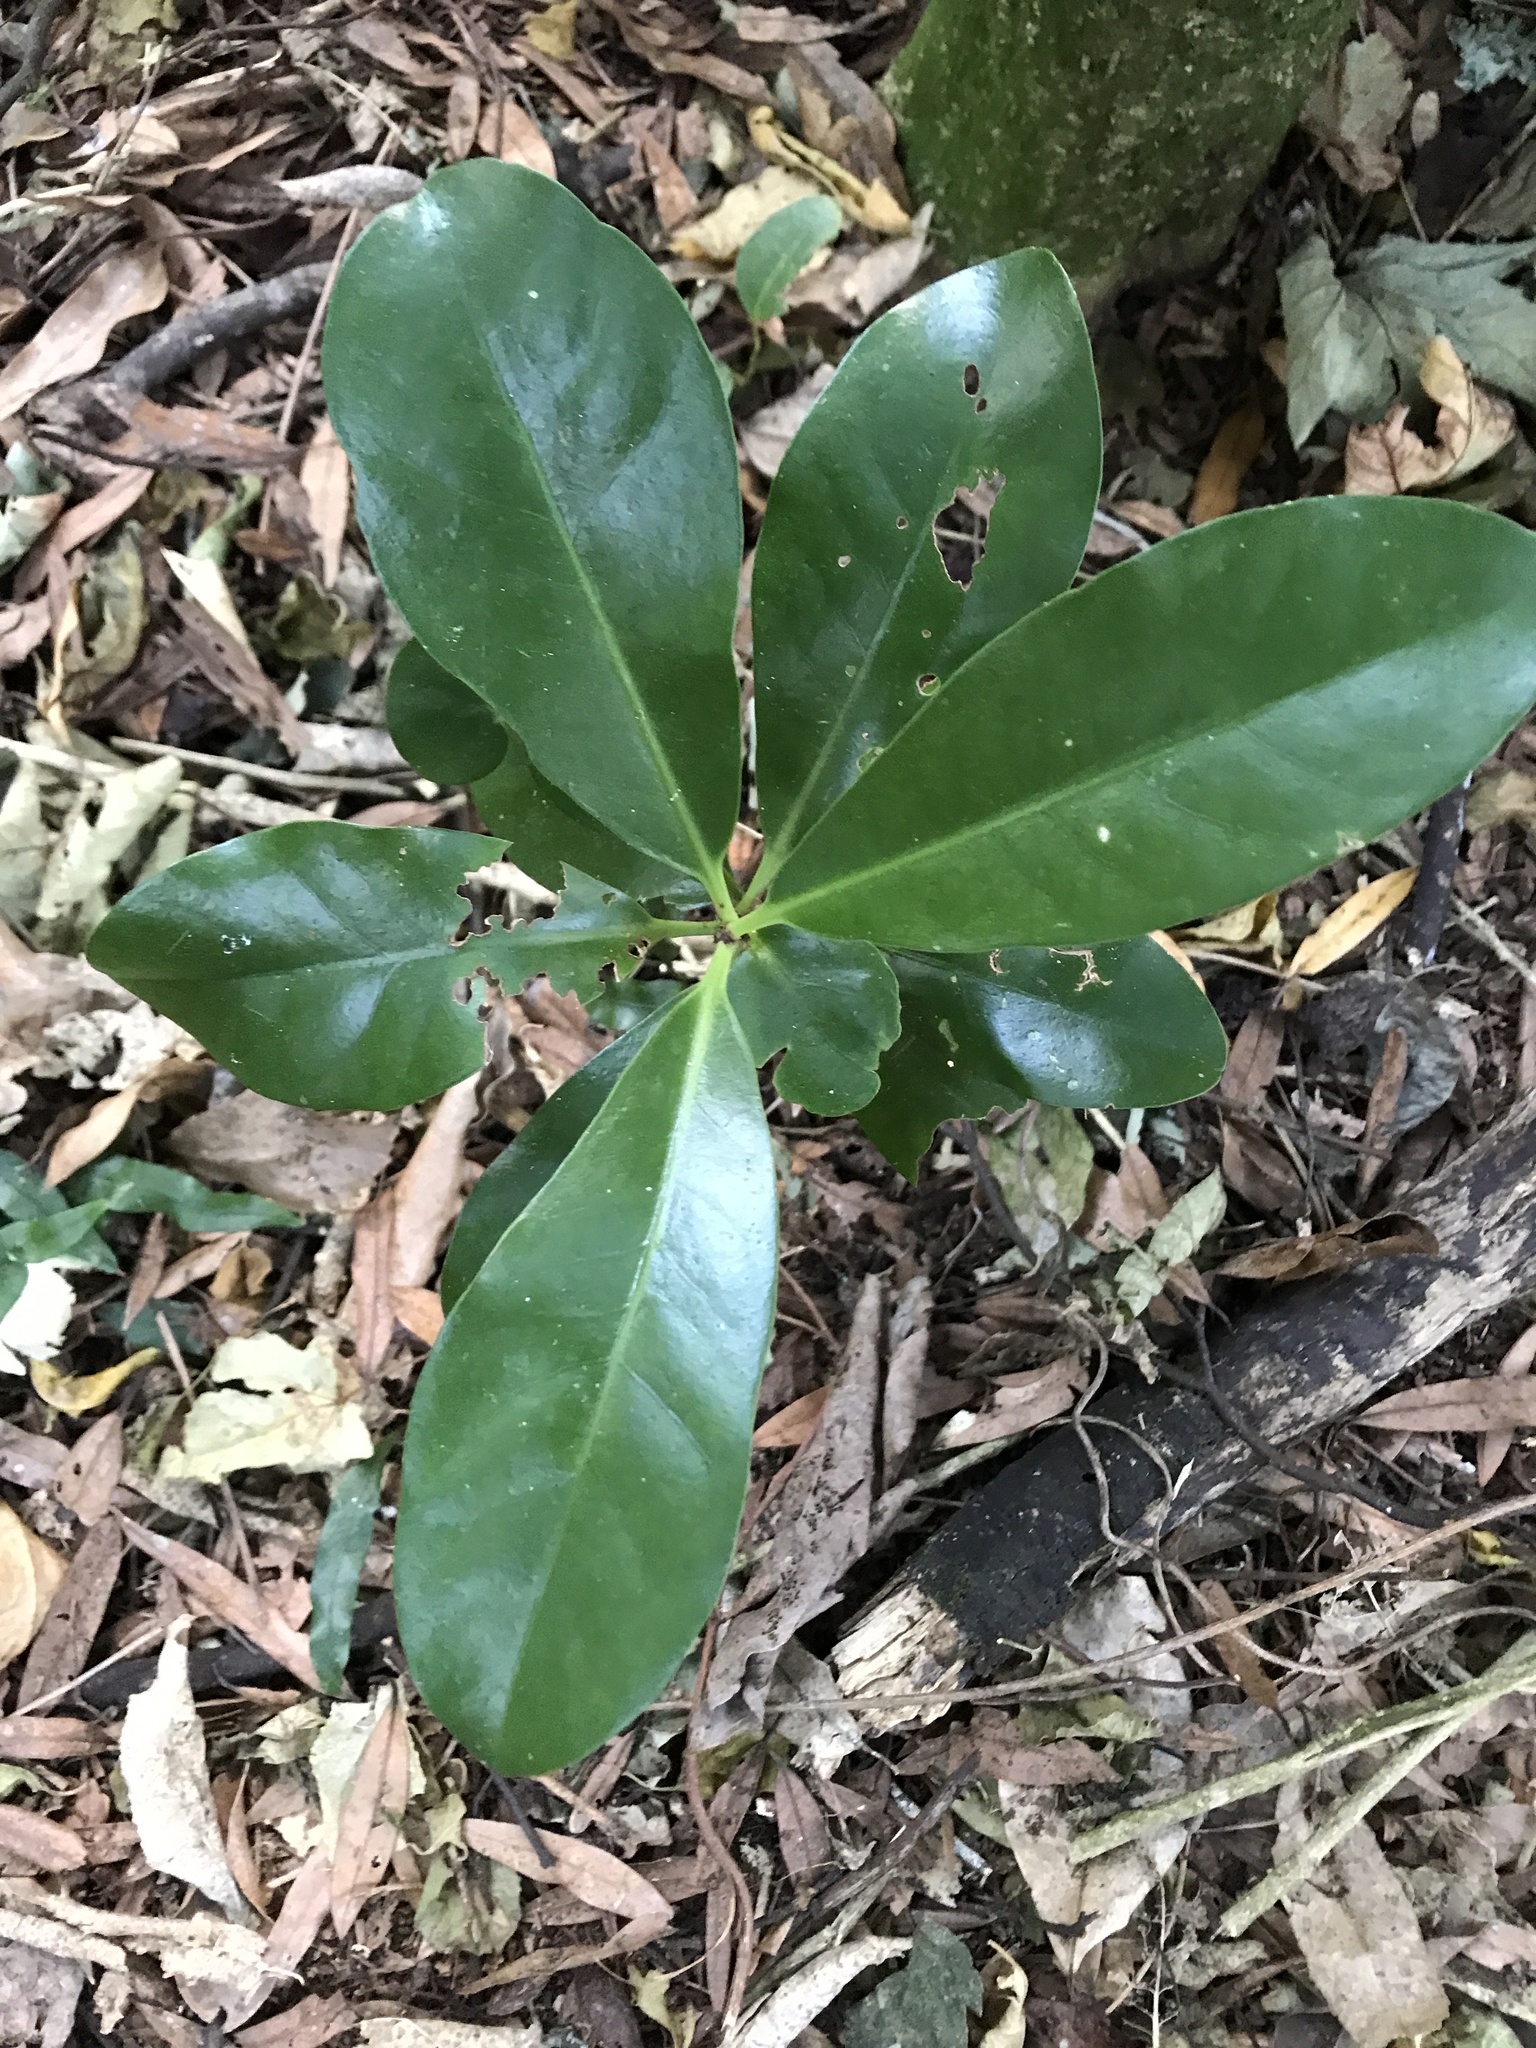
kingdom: Plantae
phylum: Tracheophyta
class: Magnoliopsida
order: Cucurbitales
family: Corynocarpaceae
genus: Corynocarpus
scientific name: Corynocarpus laevigatus
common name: New zealand laurel
